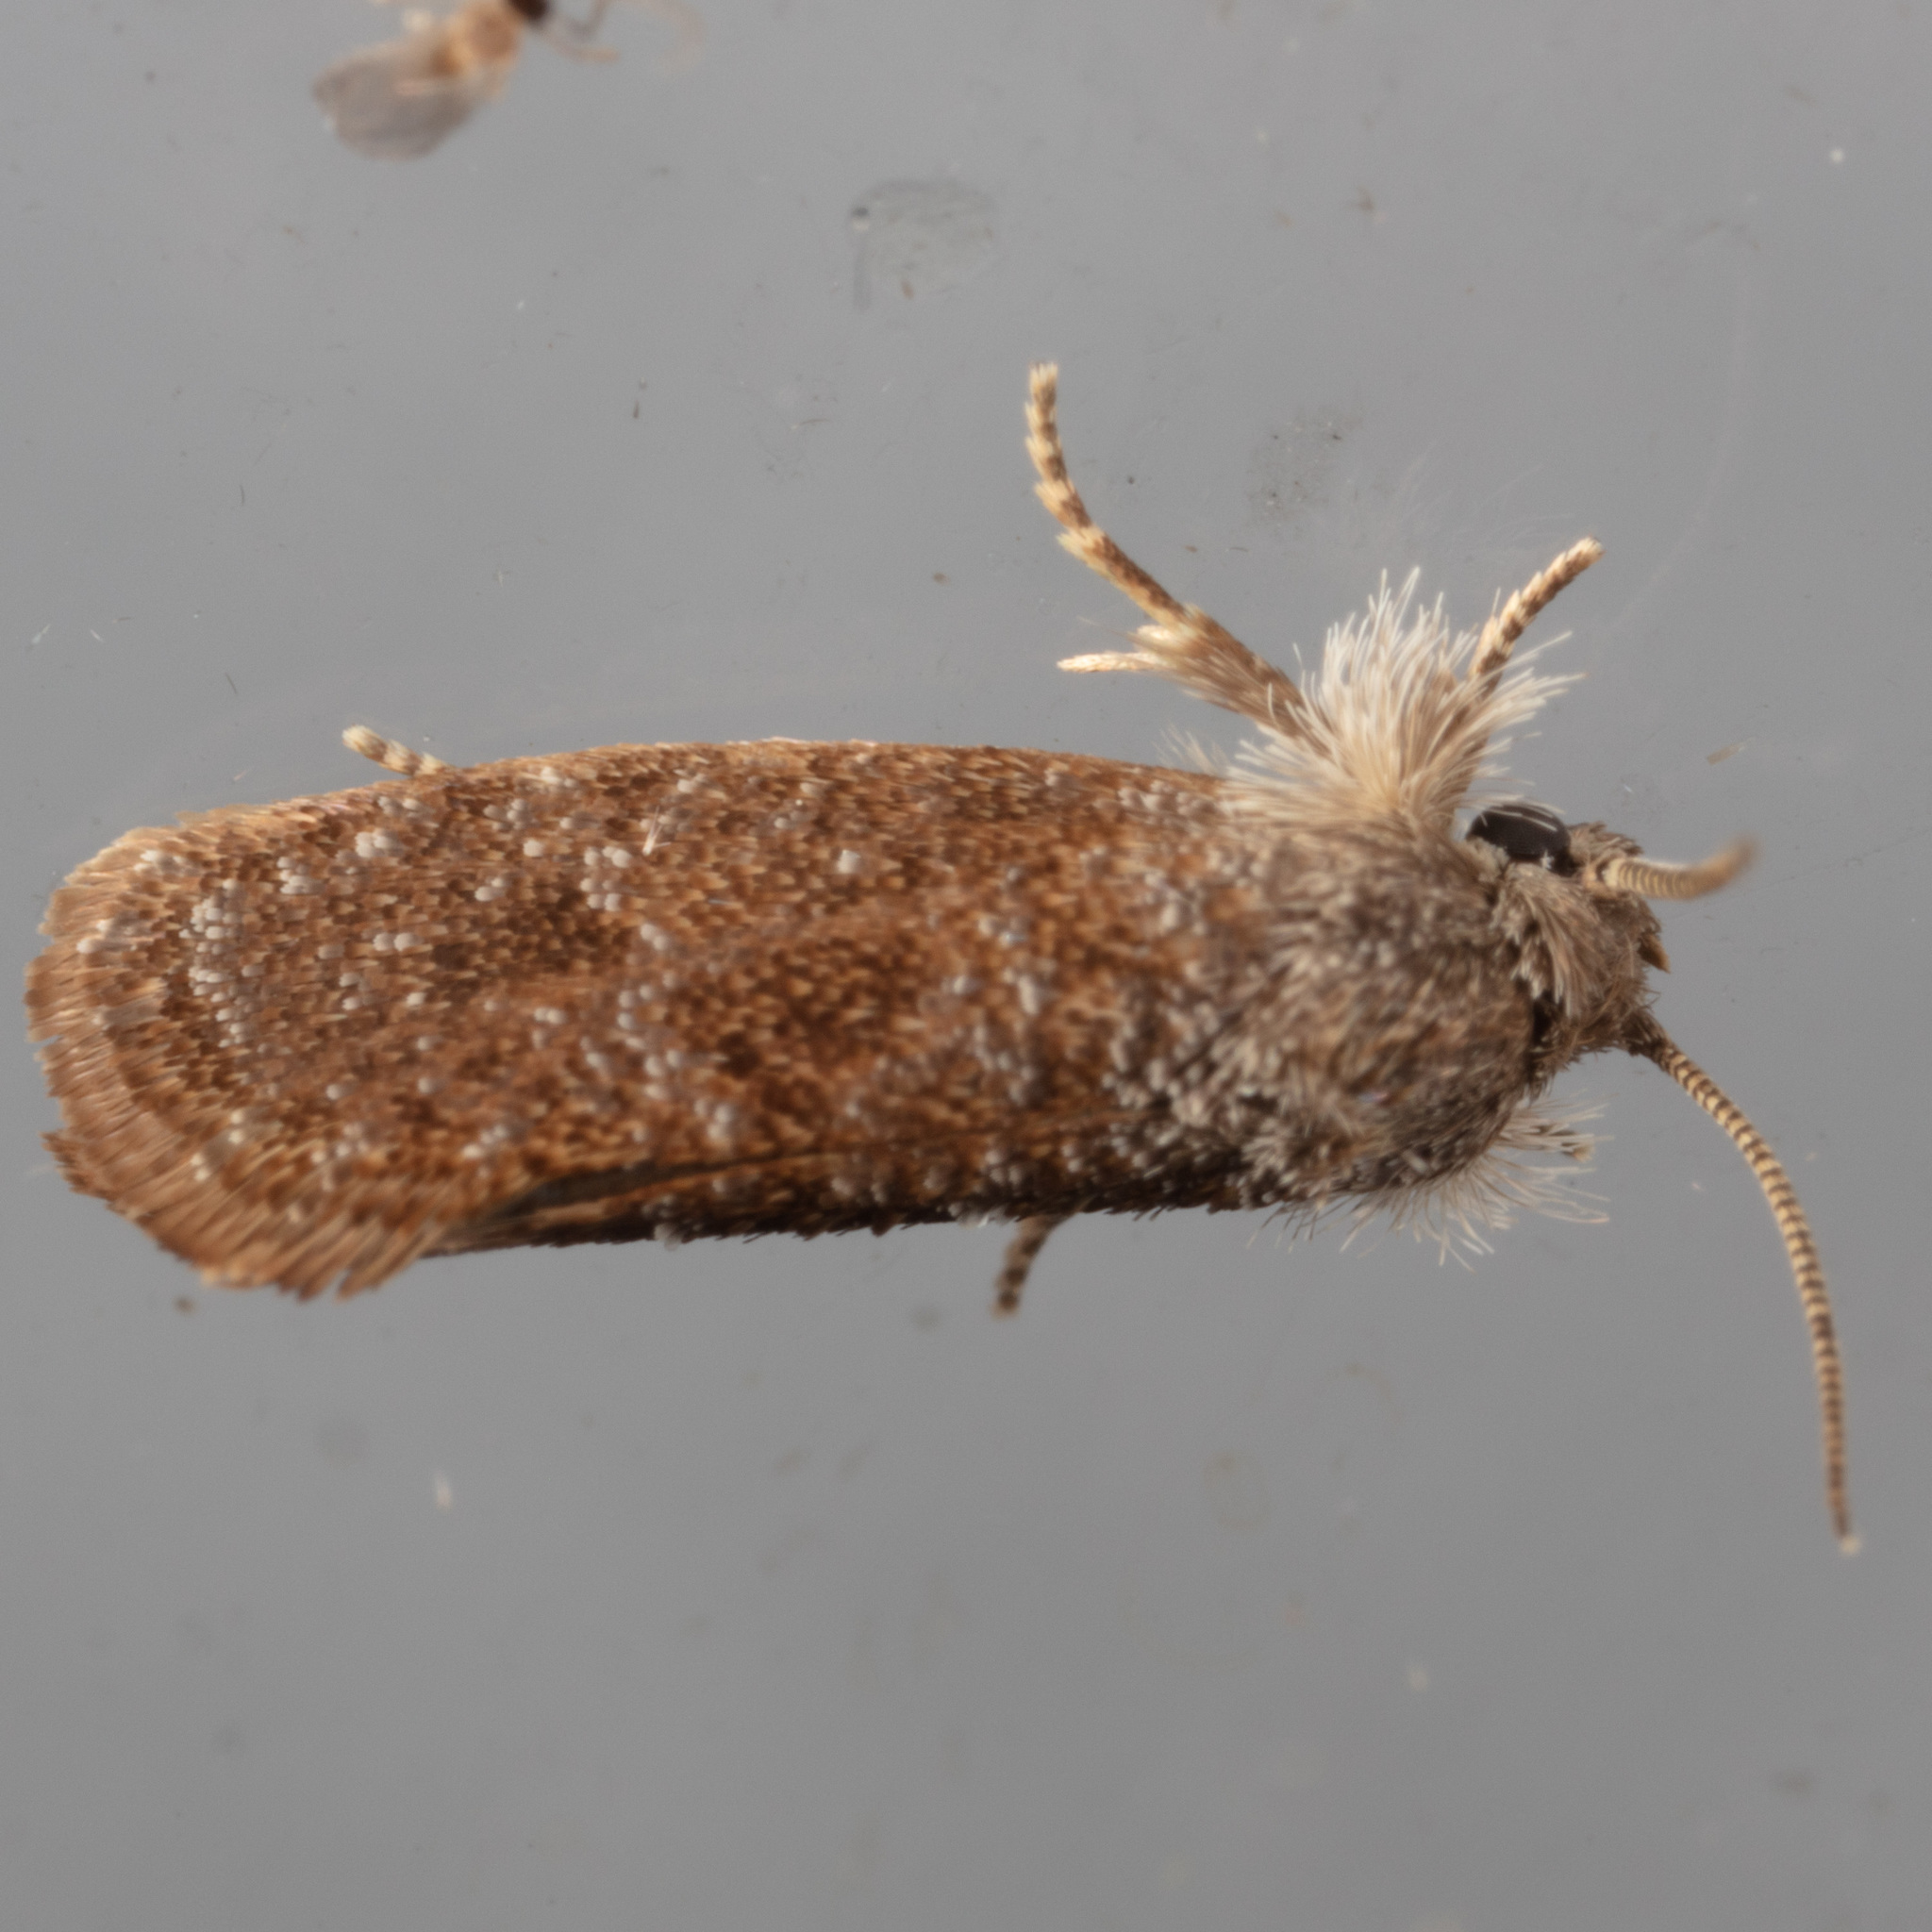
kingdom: Animalia
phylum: Arthropoda
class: Insecta
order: Lepidoptera
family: Tineidae
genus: Acrolophus
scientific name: Acrolophus heppneri
